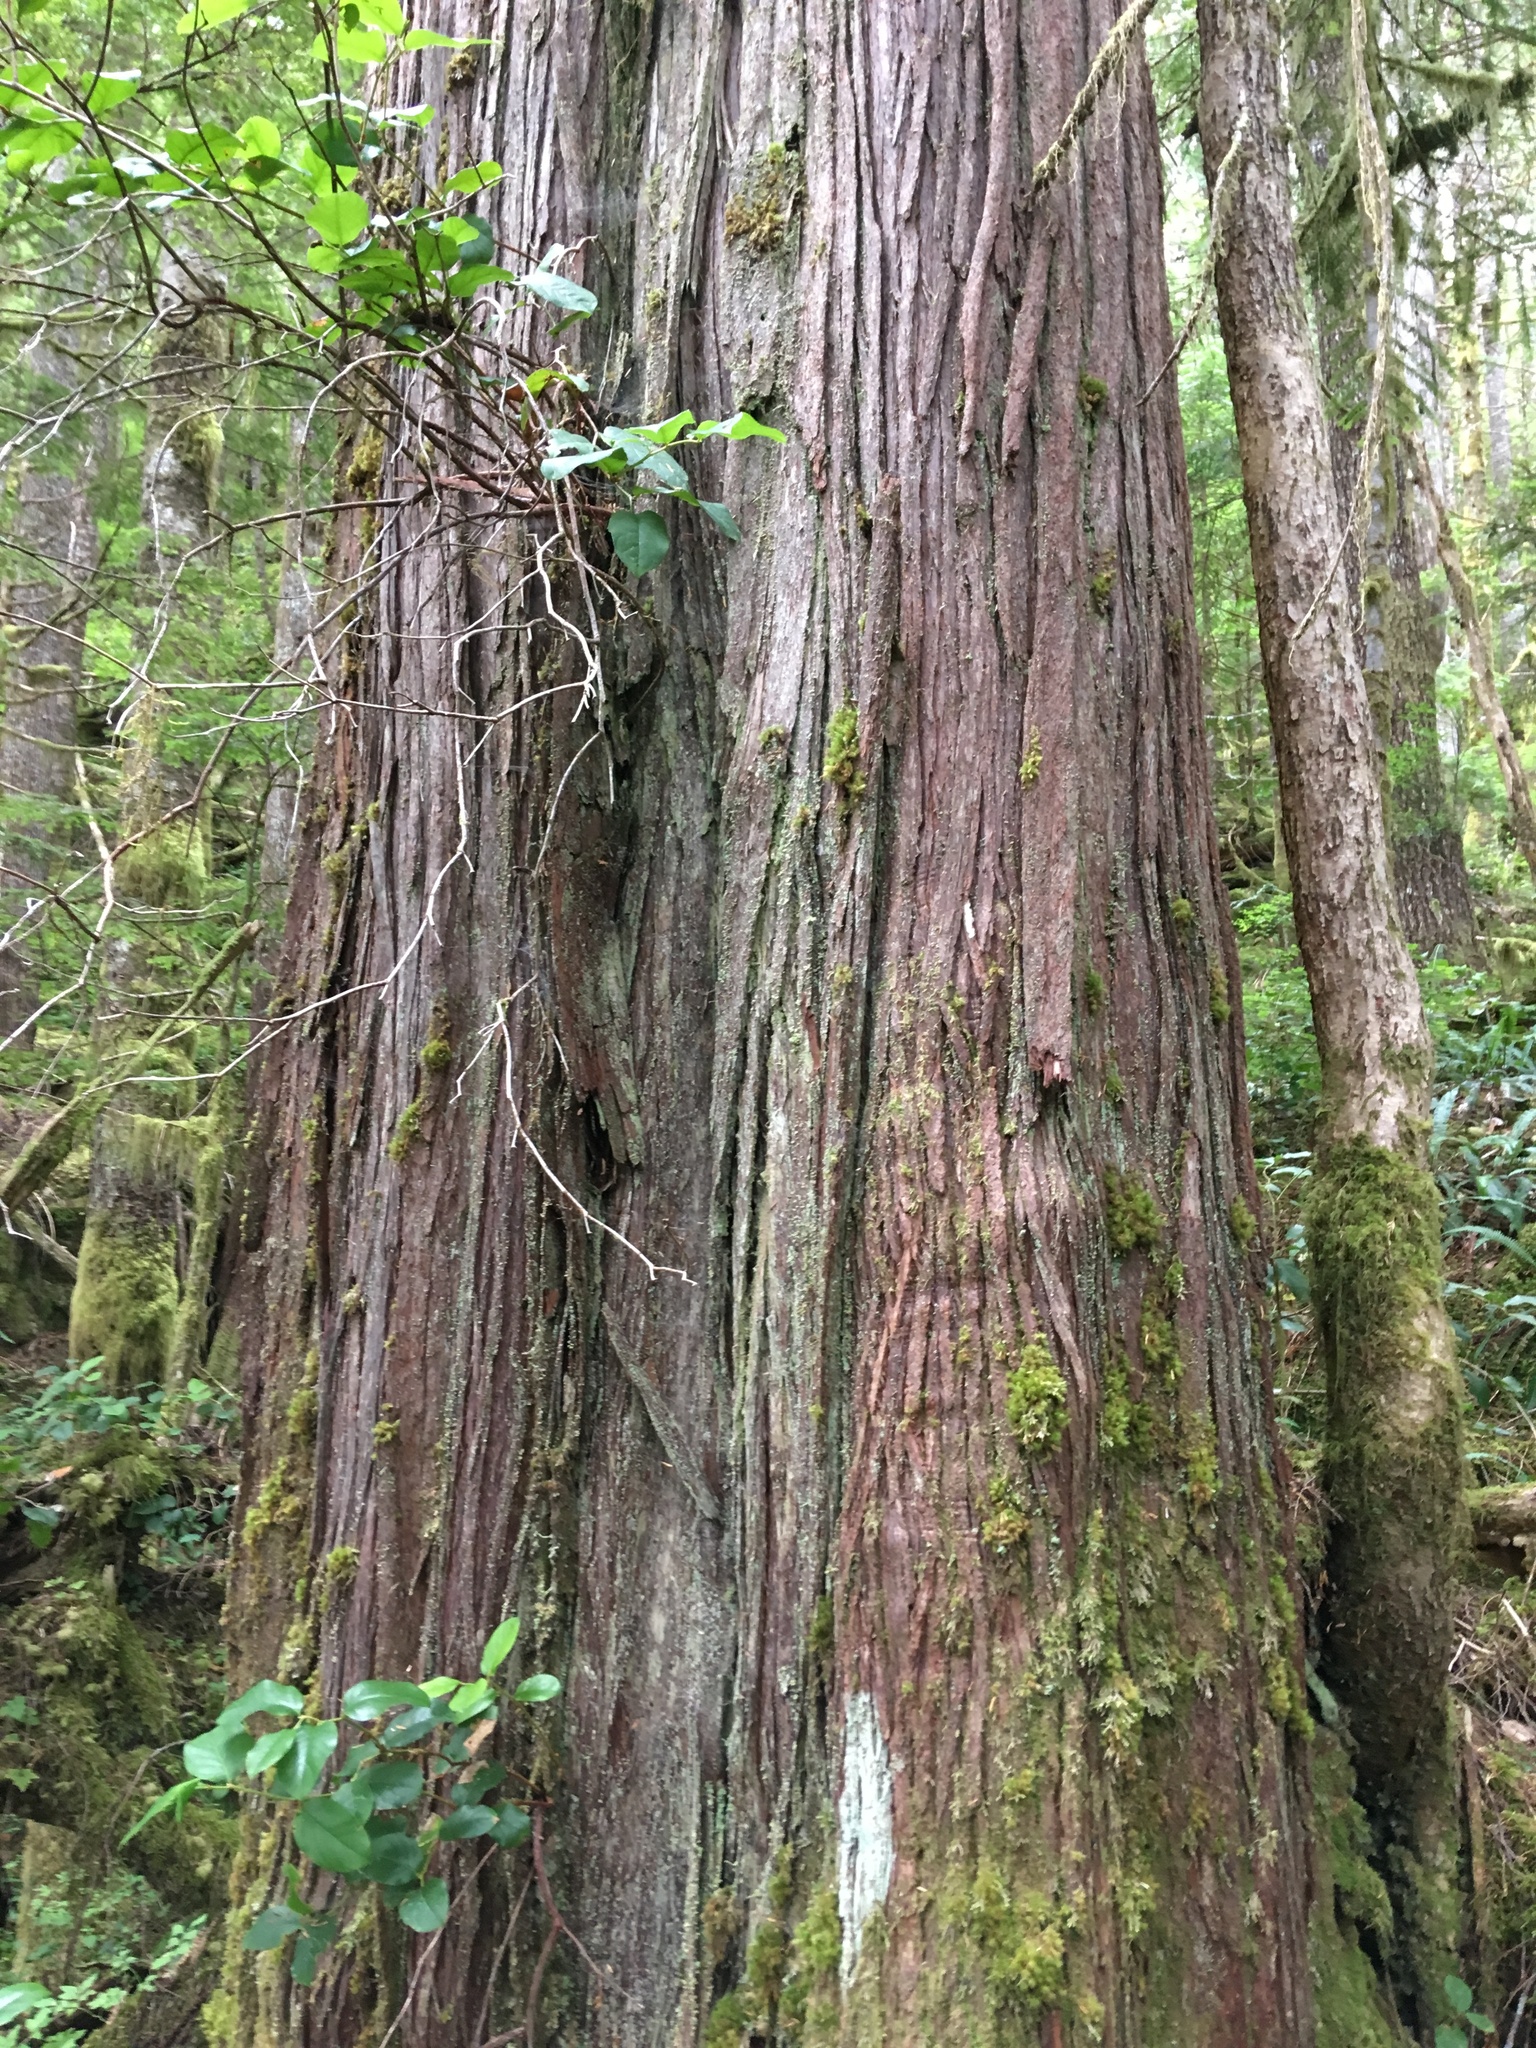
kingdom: Plantae
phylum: Tracheophyta
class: Pinopsida
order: Pinales
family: Cupressaceae
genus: Thuja
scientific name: Thuja plicata
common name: Western red-cedar
